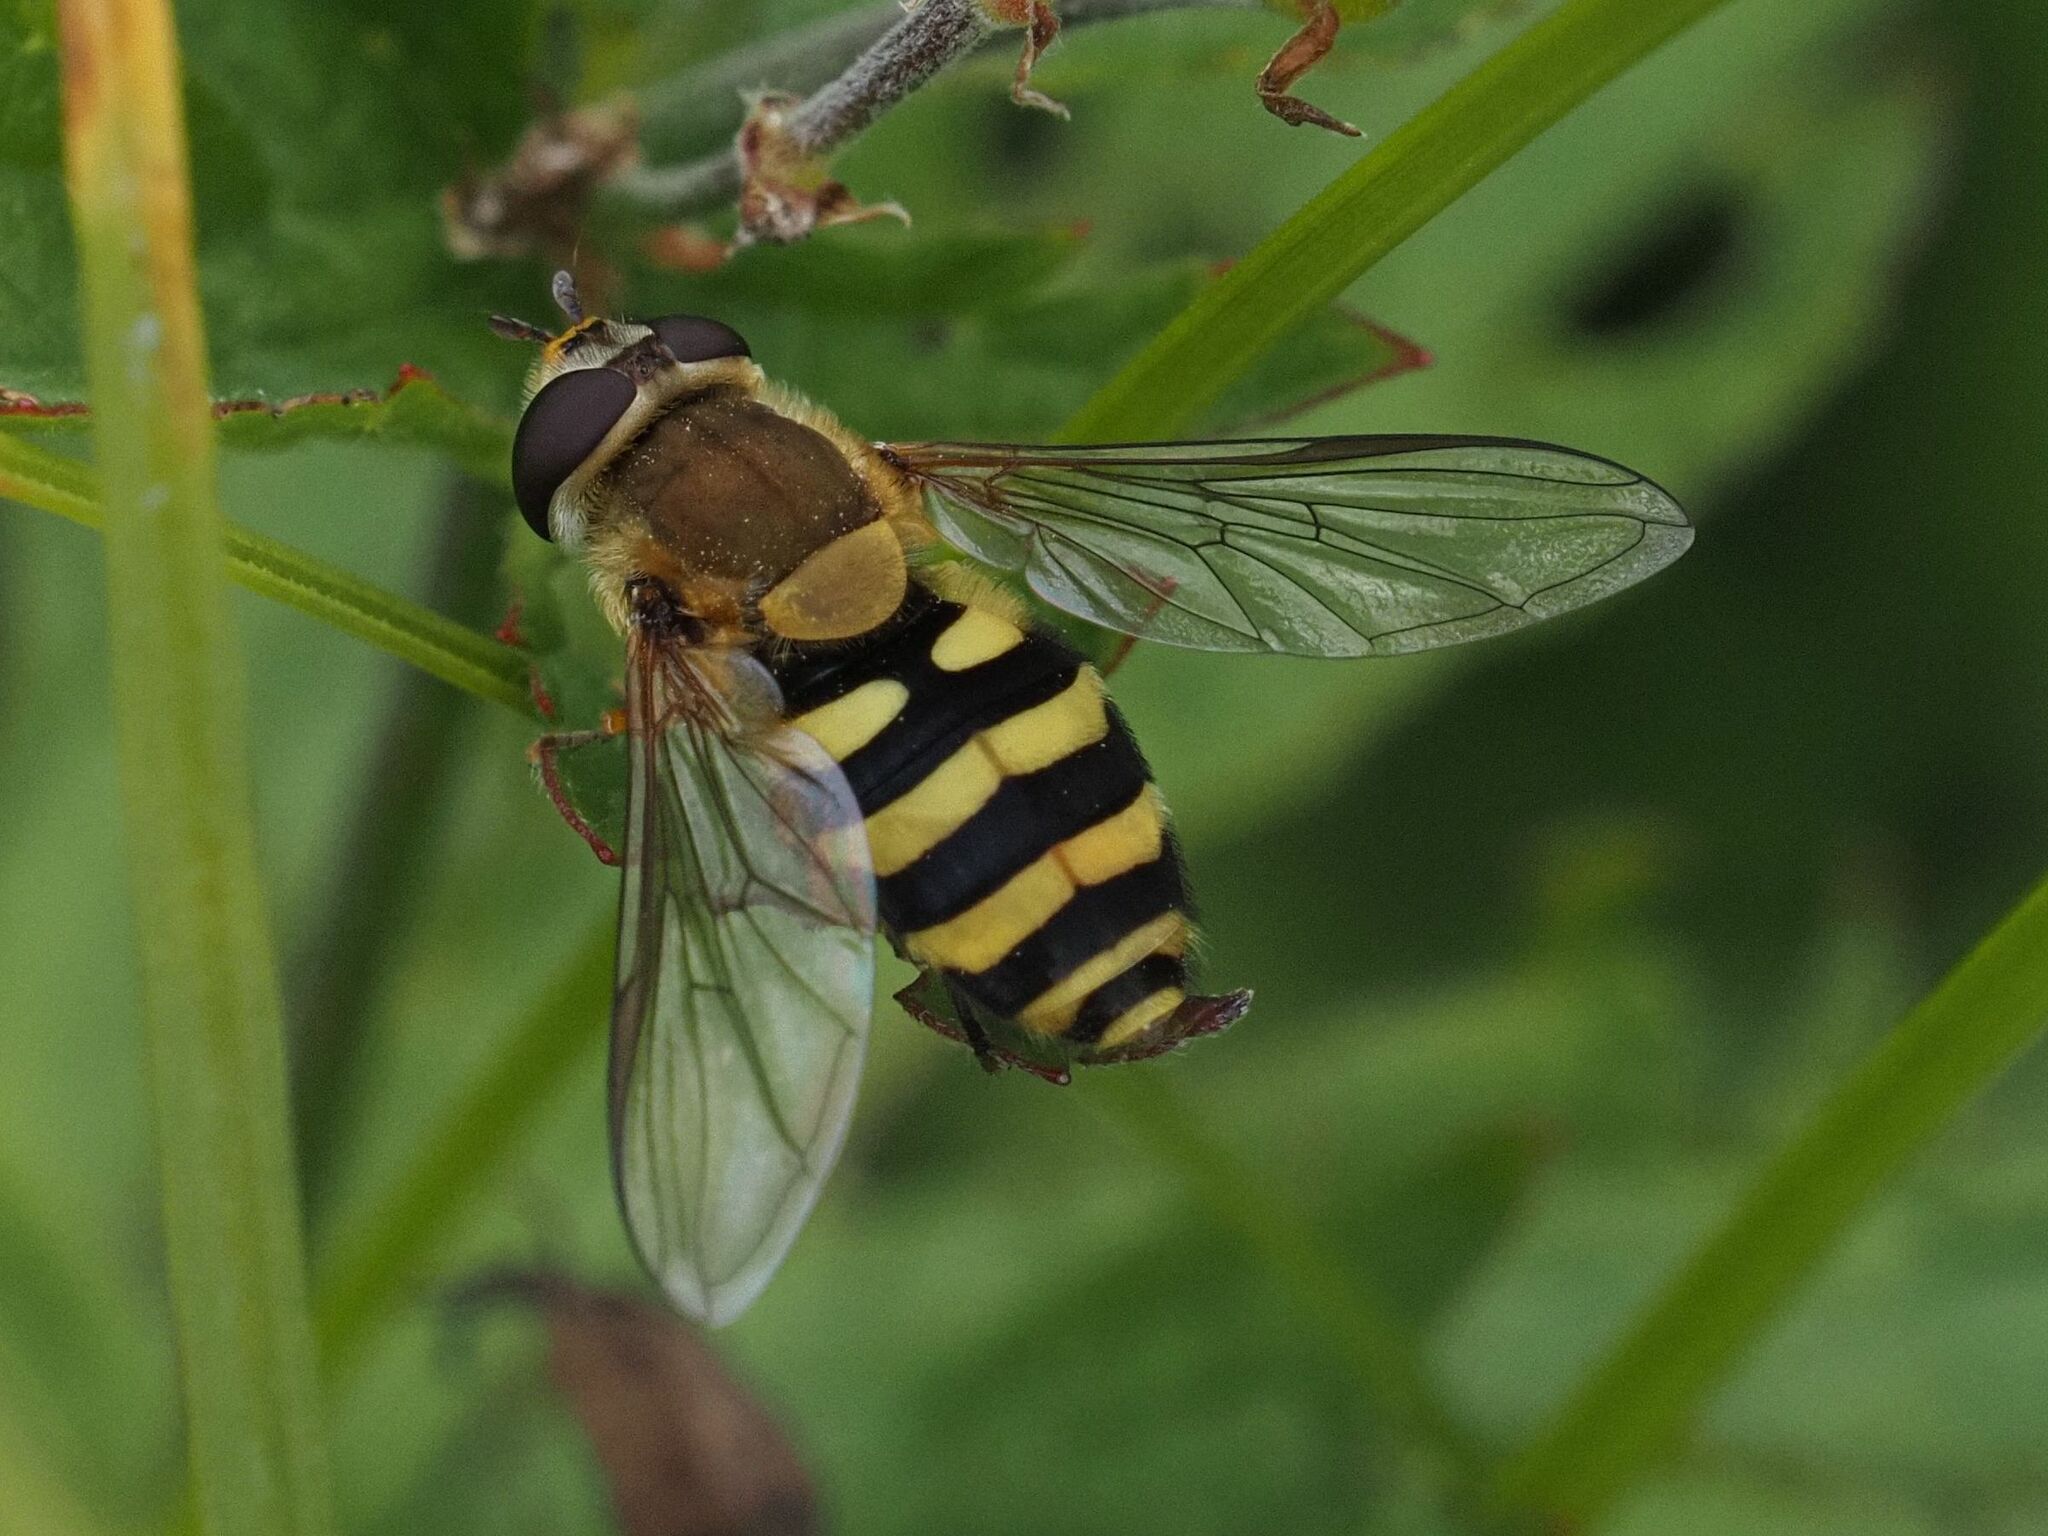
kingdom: Animalia
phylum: Arthropoda
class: Insecta
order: Diptera
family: Syrphidae
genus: Syrphus
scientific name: Syrphus
